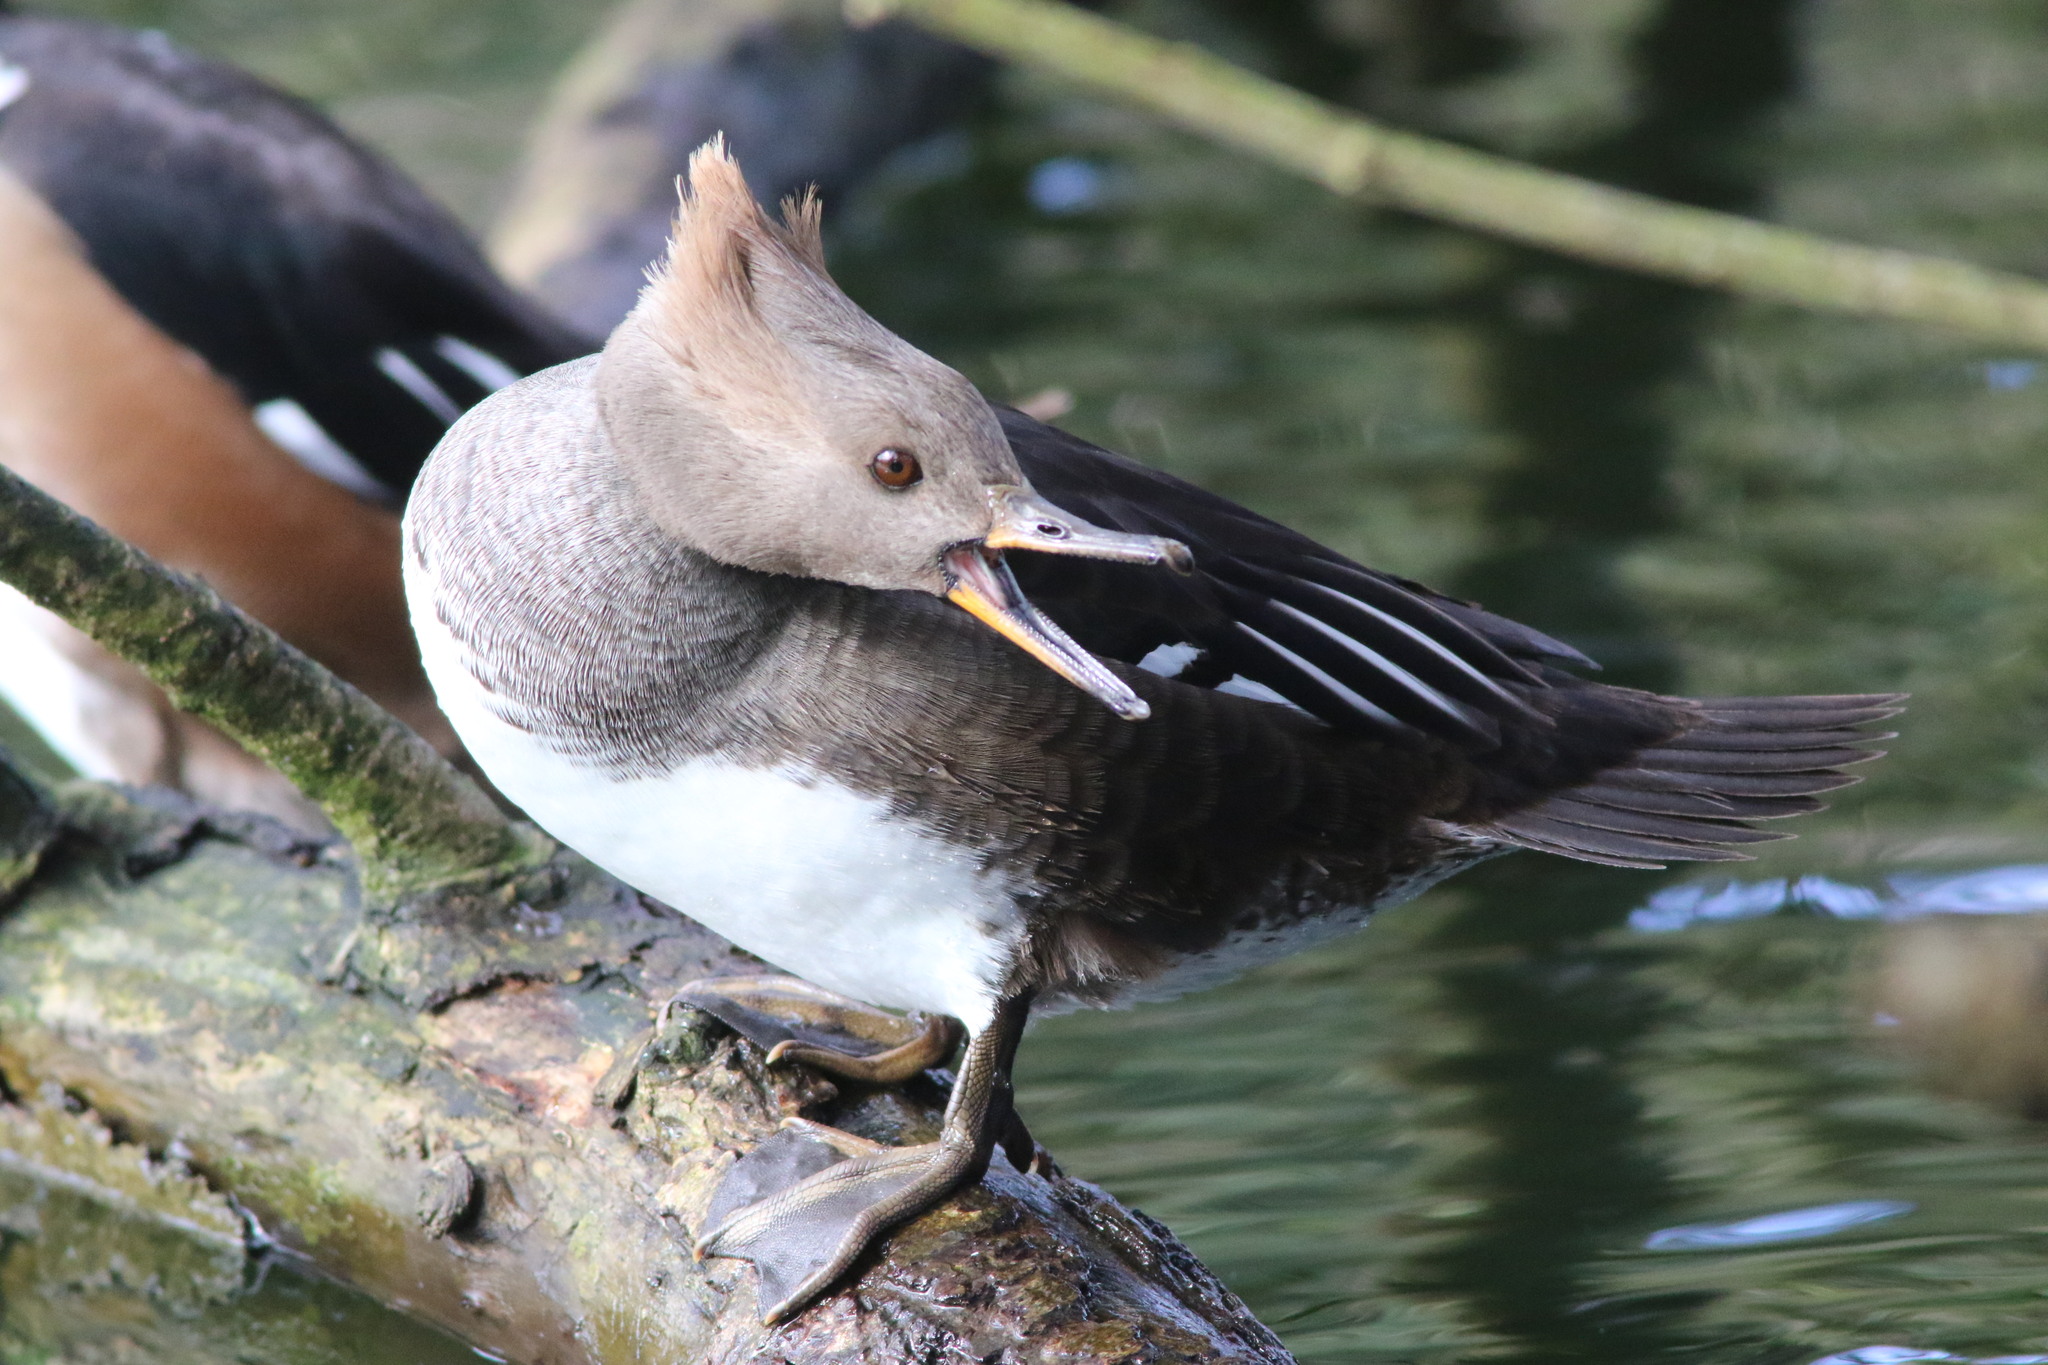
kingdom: Animalia
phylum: Chordata
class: Aves
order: Anseriformes
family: Anatidae
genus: Lophodytes
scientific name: Lophodytes cucullatus
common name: Hooded merganser
